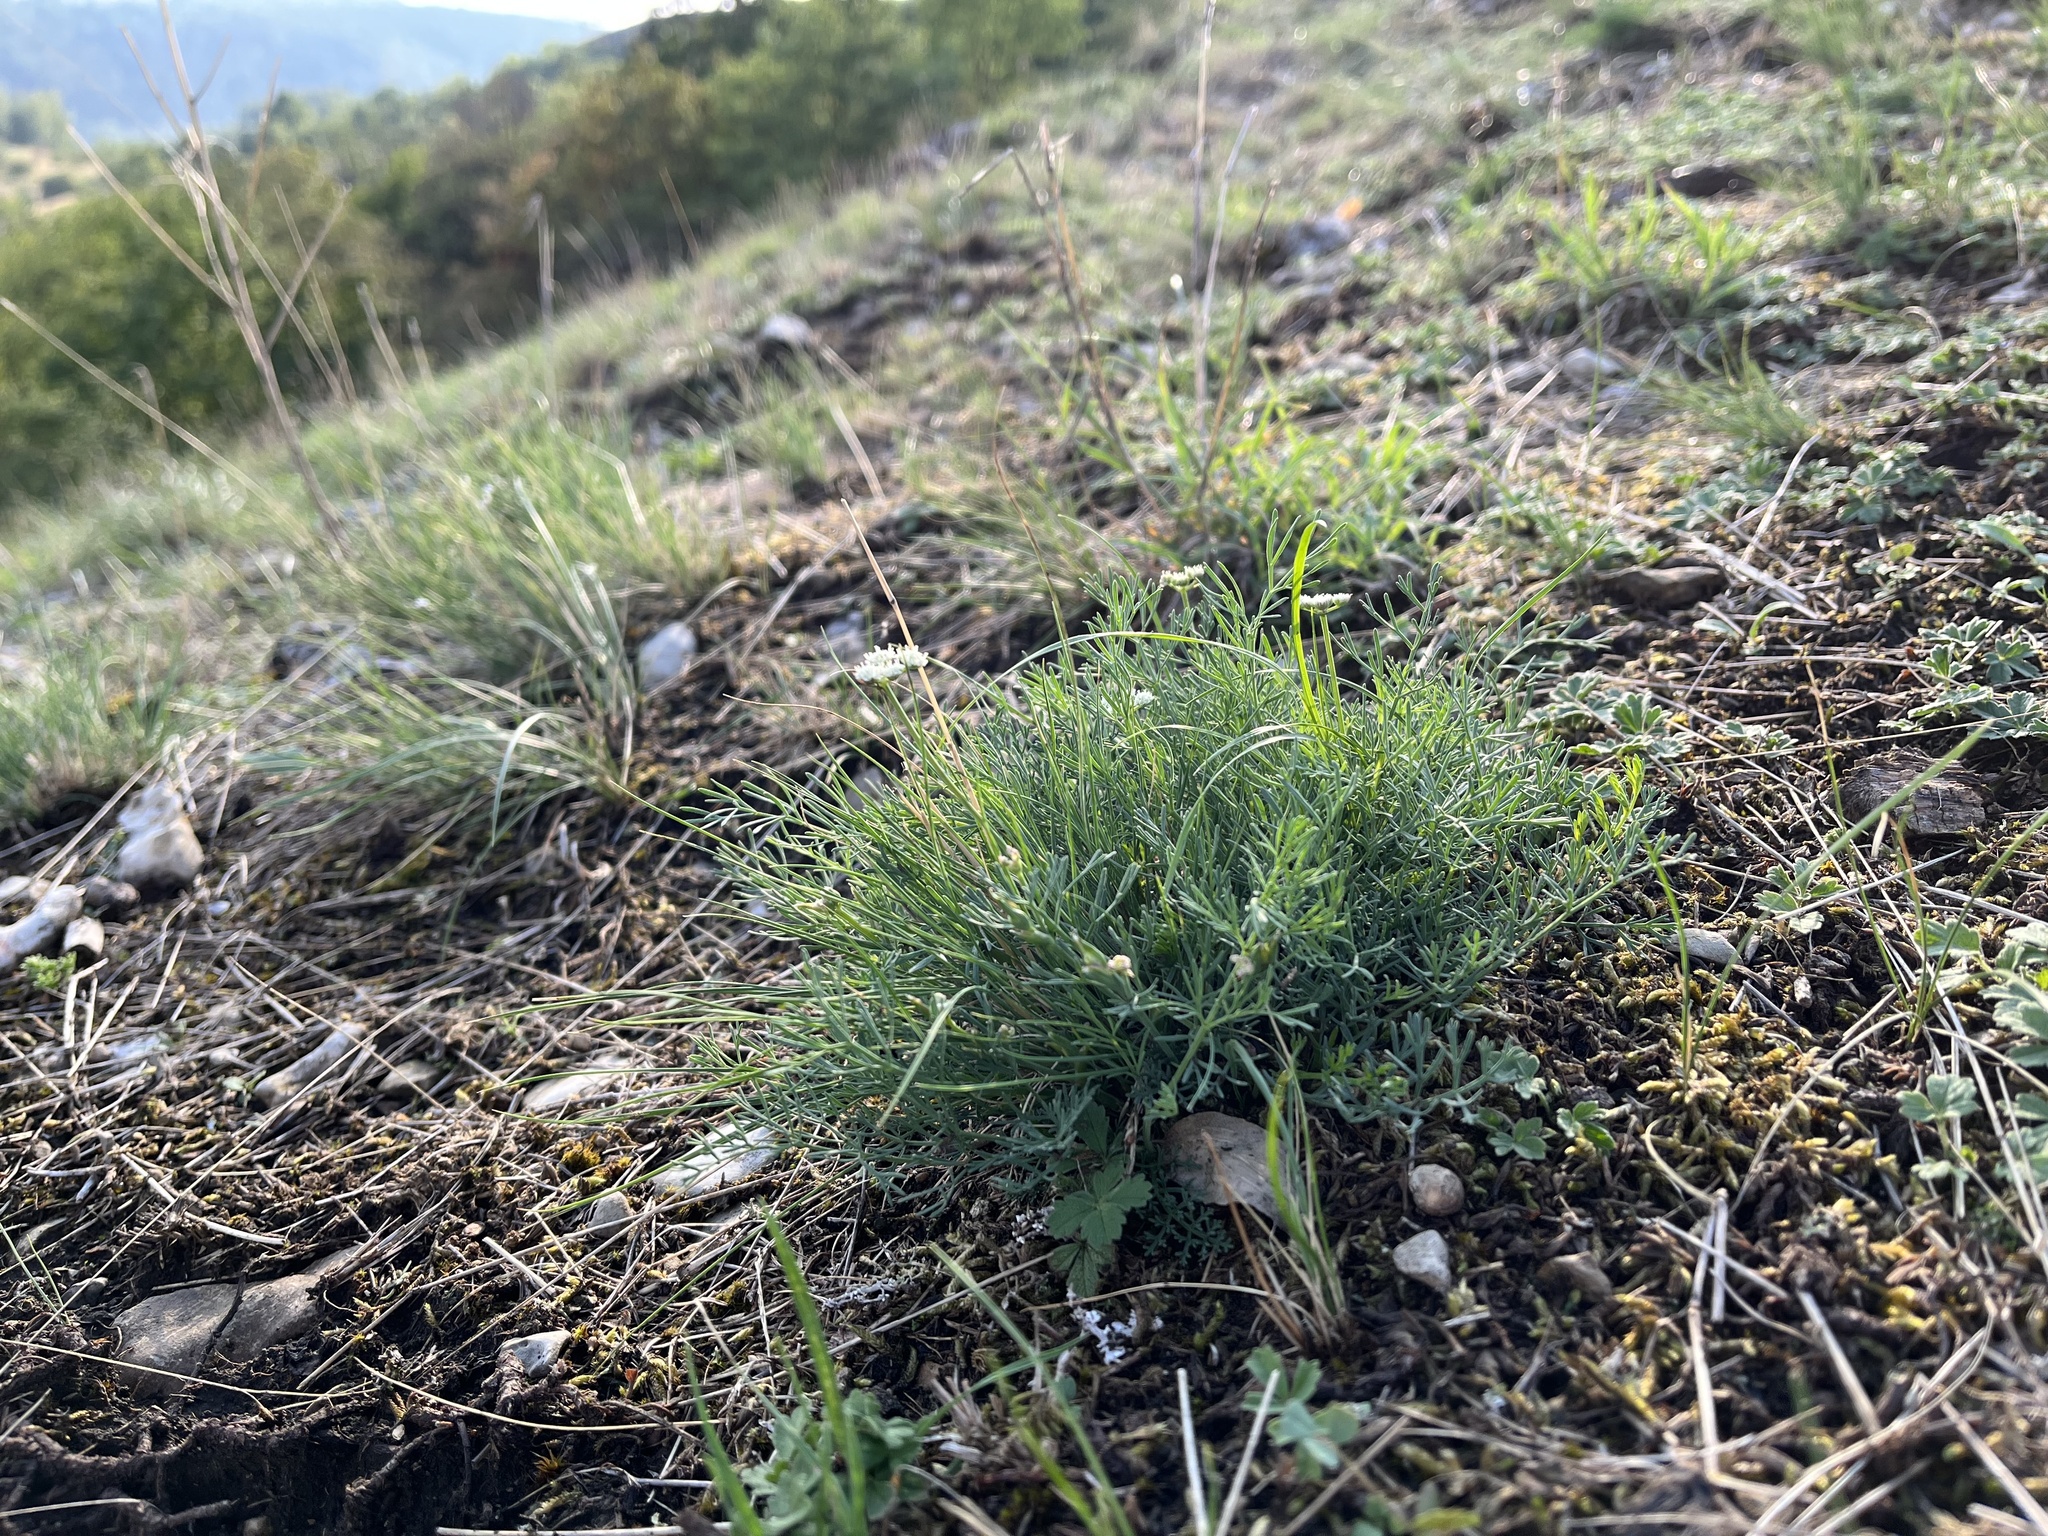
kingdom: Plantae
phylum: Tracheophyta
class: Magnoliopsida
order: Apiales
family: Apiaceae
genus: Hippomarathrum
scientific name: Hippomarathrum
